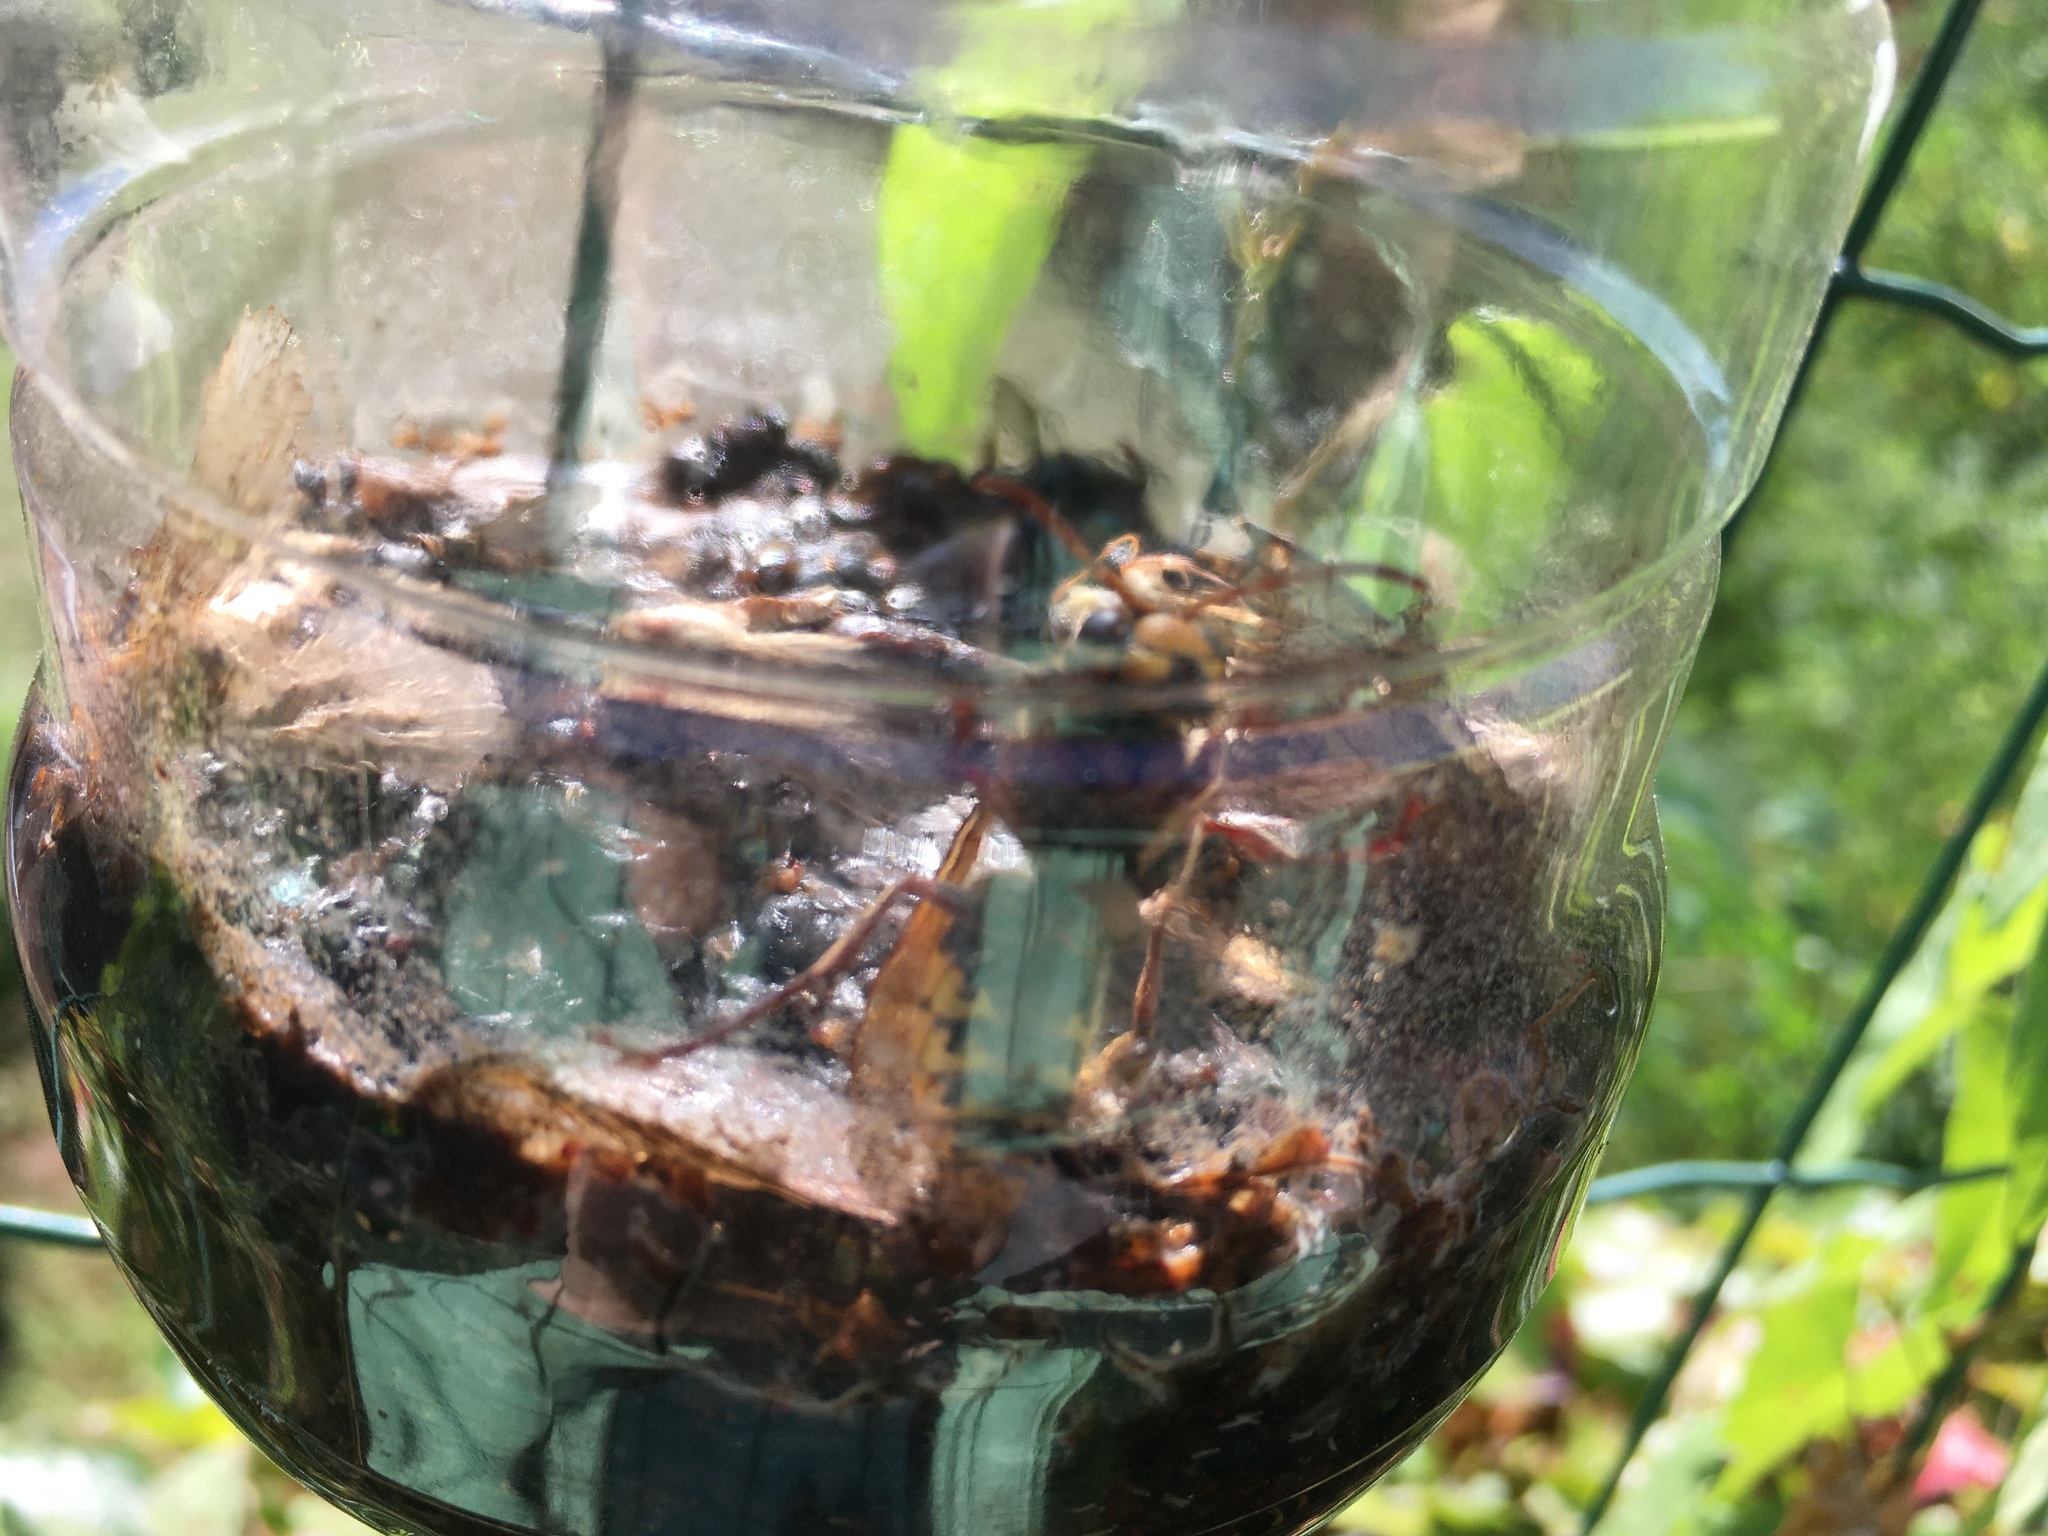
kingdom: Animalia
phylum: Arthropoda
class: Insecta
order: Hymenoptera
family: Vespidae
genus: Vespa
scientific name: Vespa crabro
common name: Hornet
